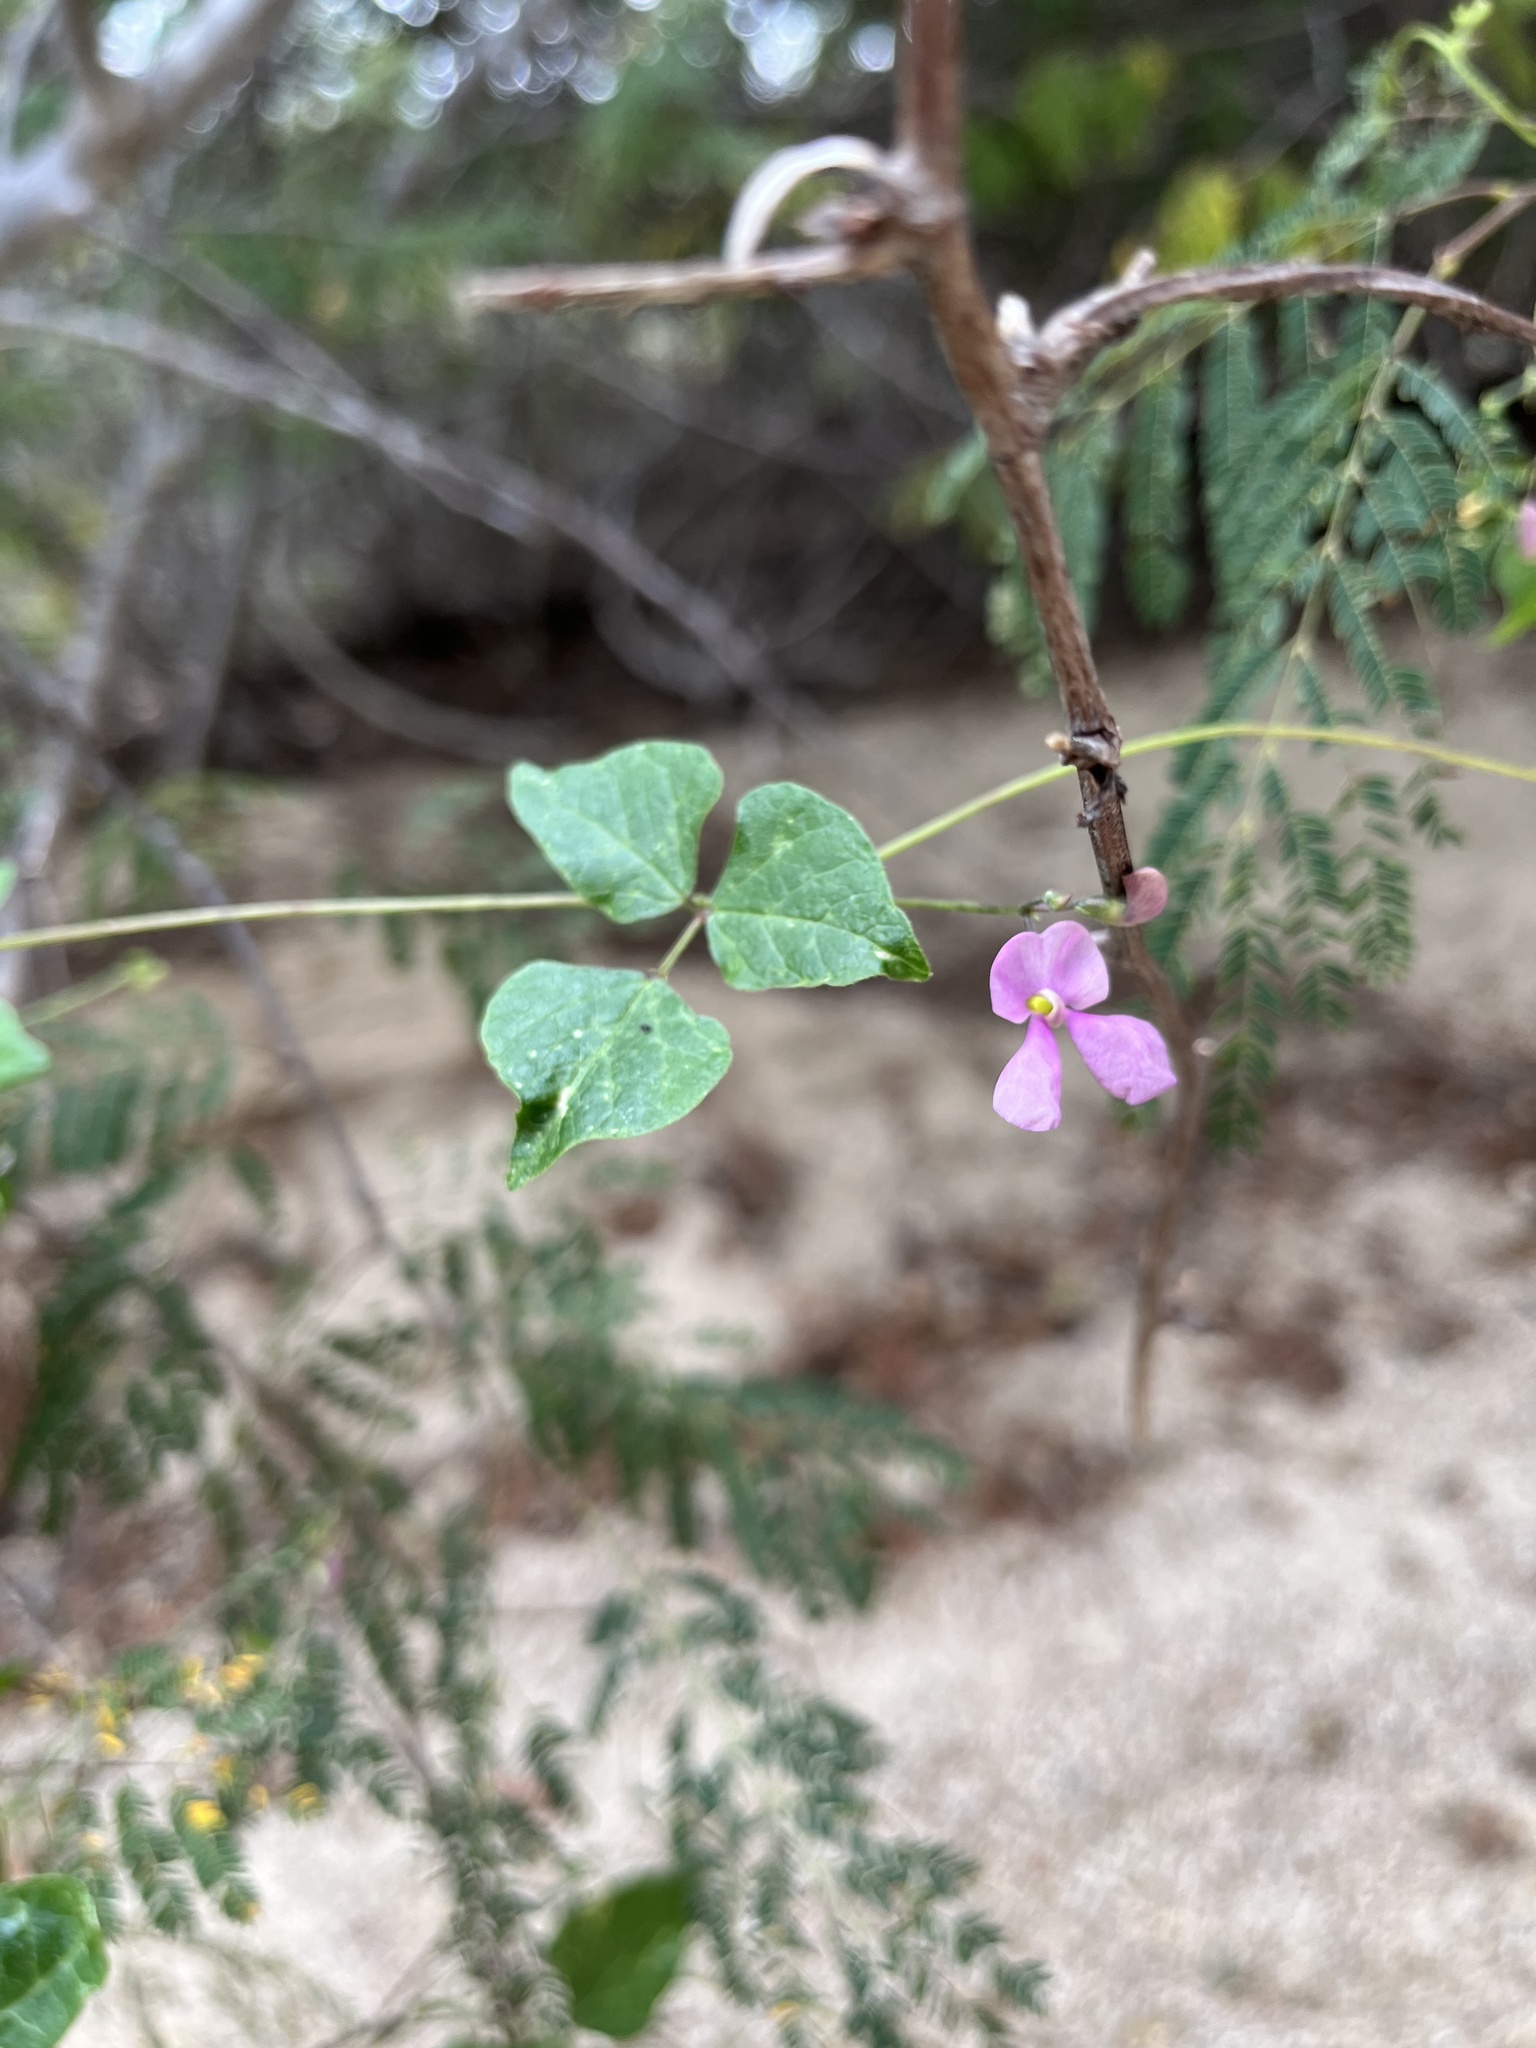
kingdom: Plantae
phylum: Tracheophyta
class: Magnoliopsida
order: Fabales
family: Fabaceae
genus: Phaseolus
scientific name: Phaseolus filiformis
